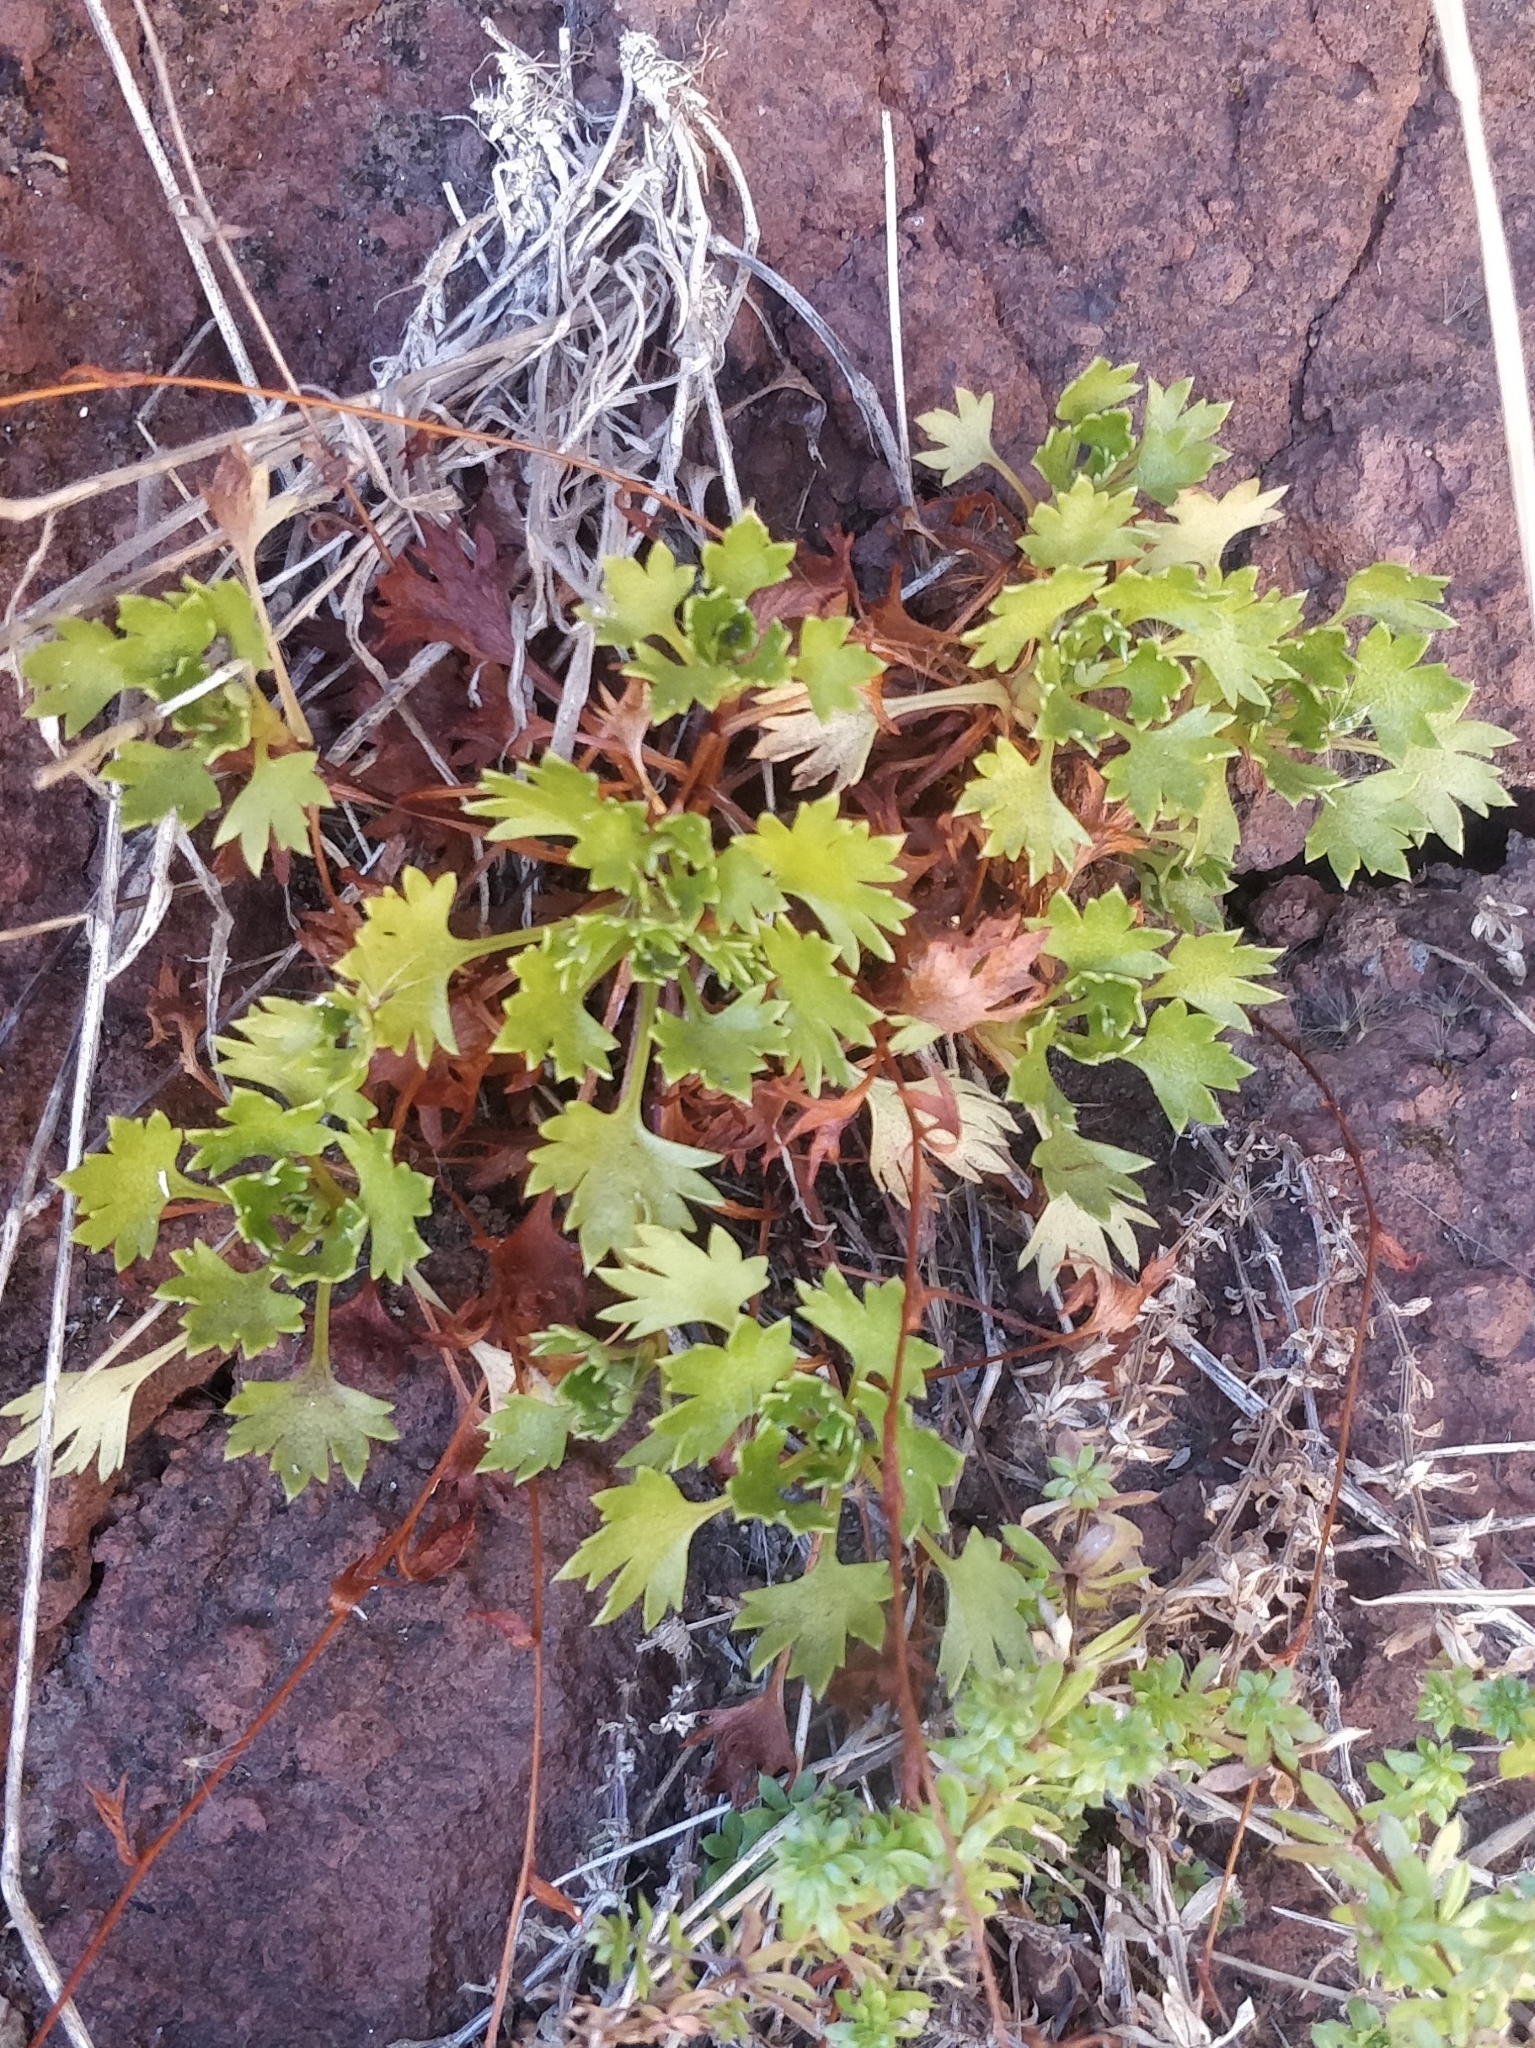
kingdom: Plantae
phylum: Tracheophyta
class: Magnoliopsida
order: Saxifragales
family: Saxifragaceae
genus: Saxifraga
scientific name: Saxifraga maderensis
